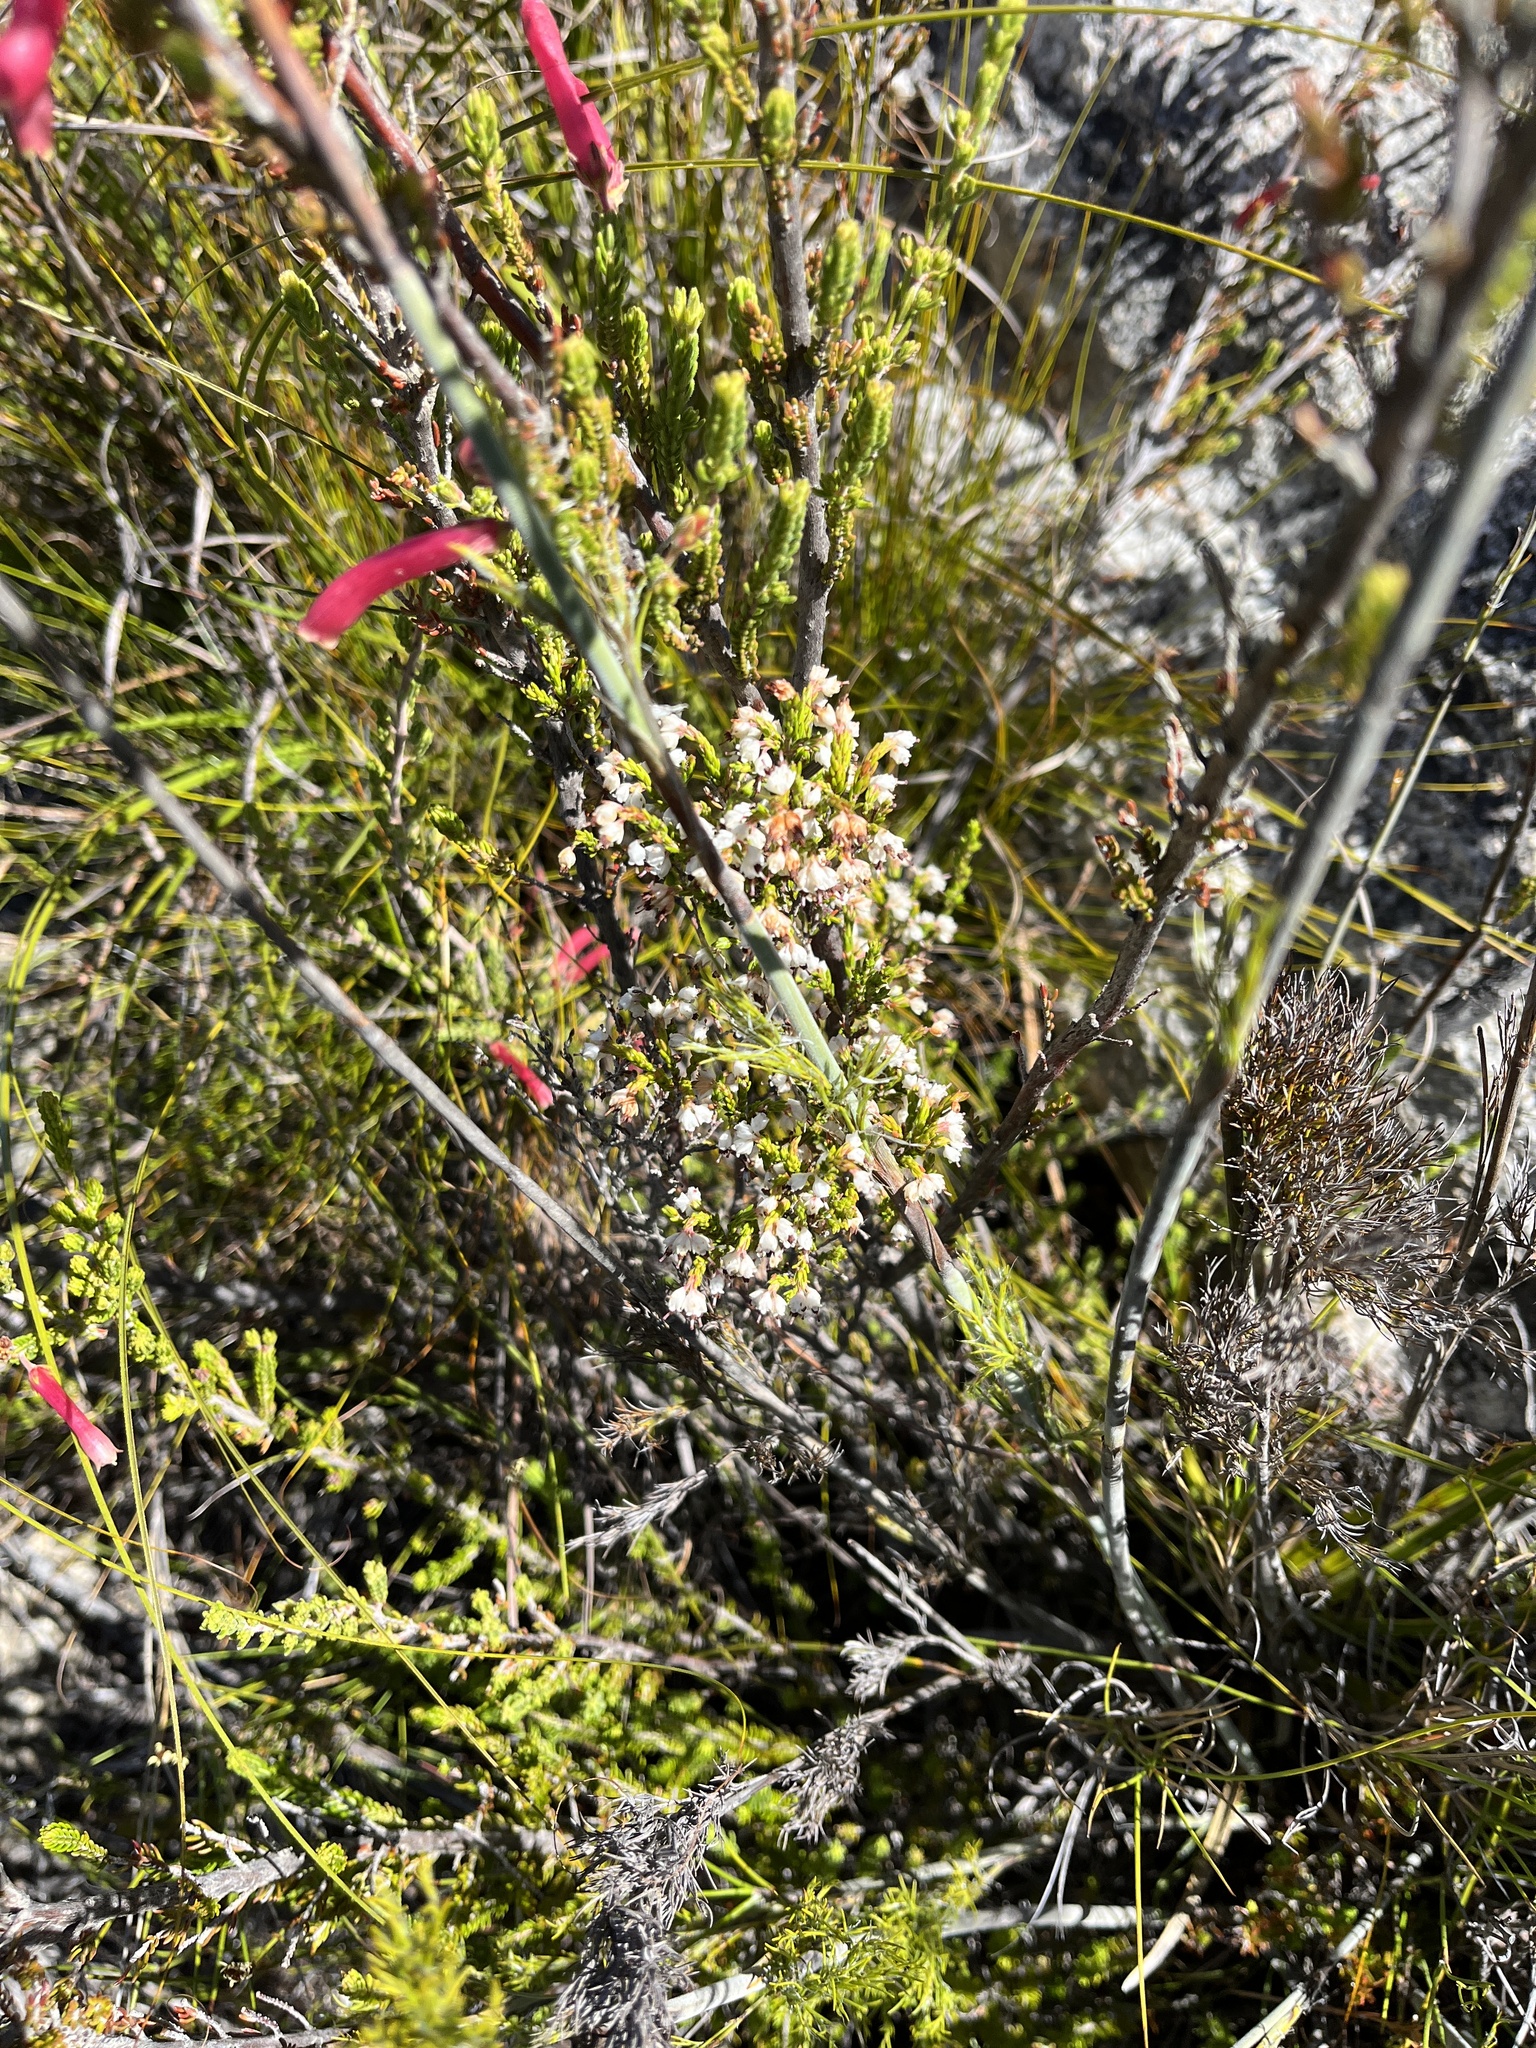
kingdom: Plantae
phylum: Tracheophyta
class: Magnoliopsida
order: Ericales
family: Ericaceae
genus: Erica
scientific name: Erica triceps
